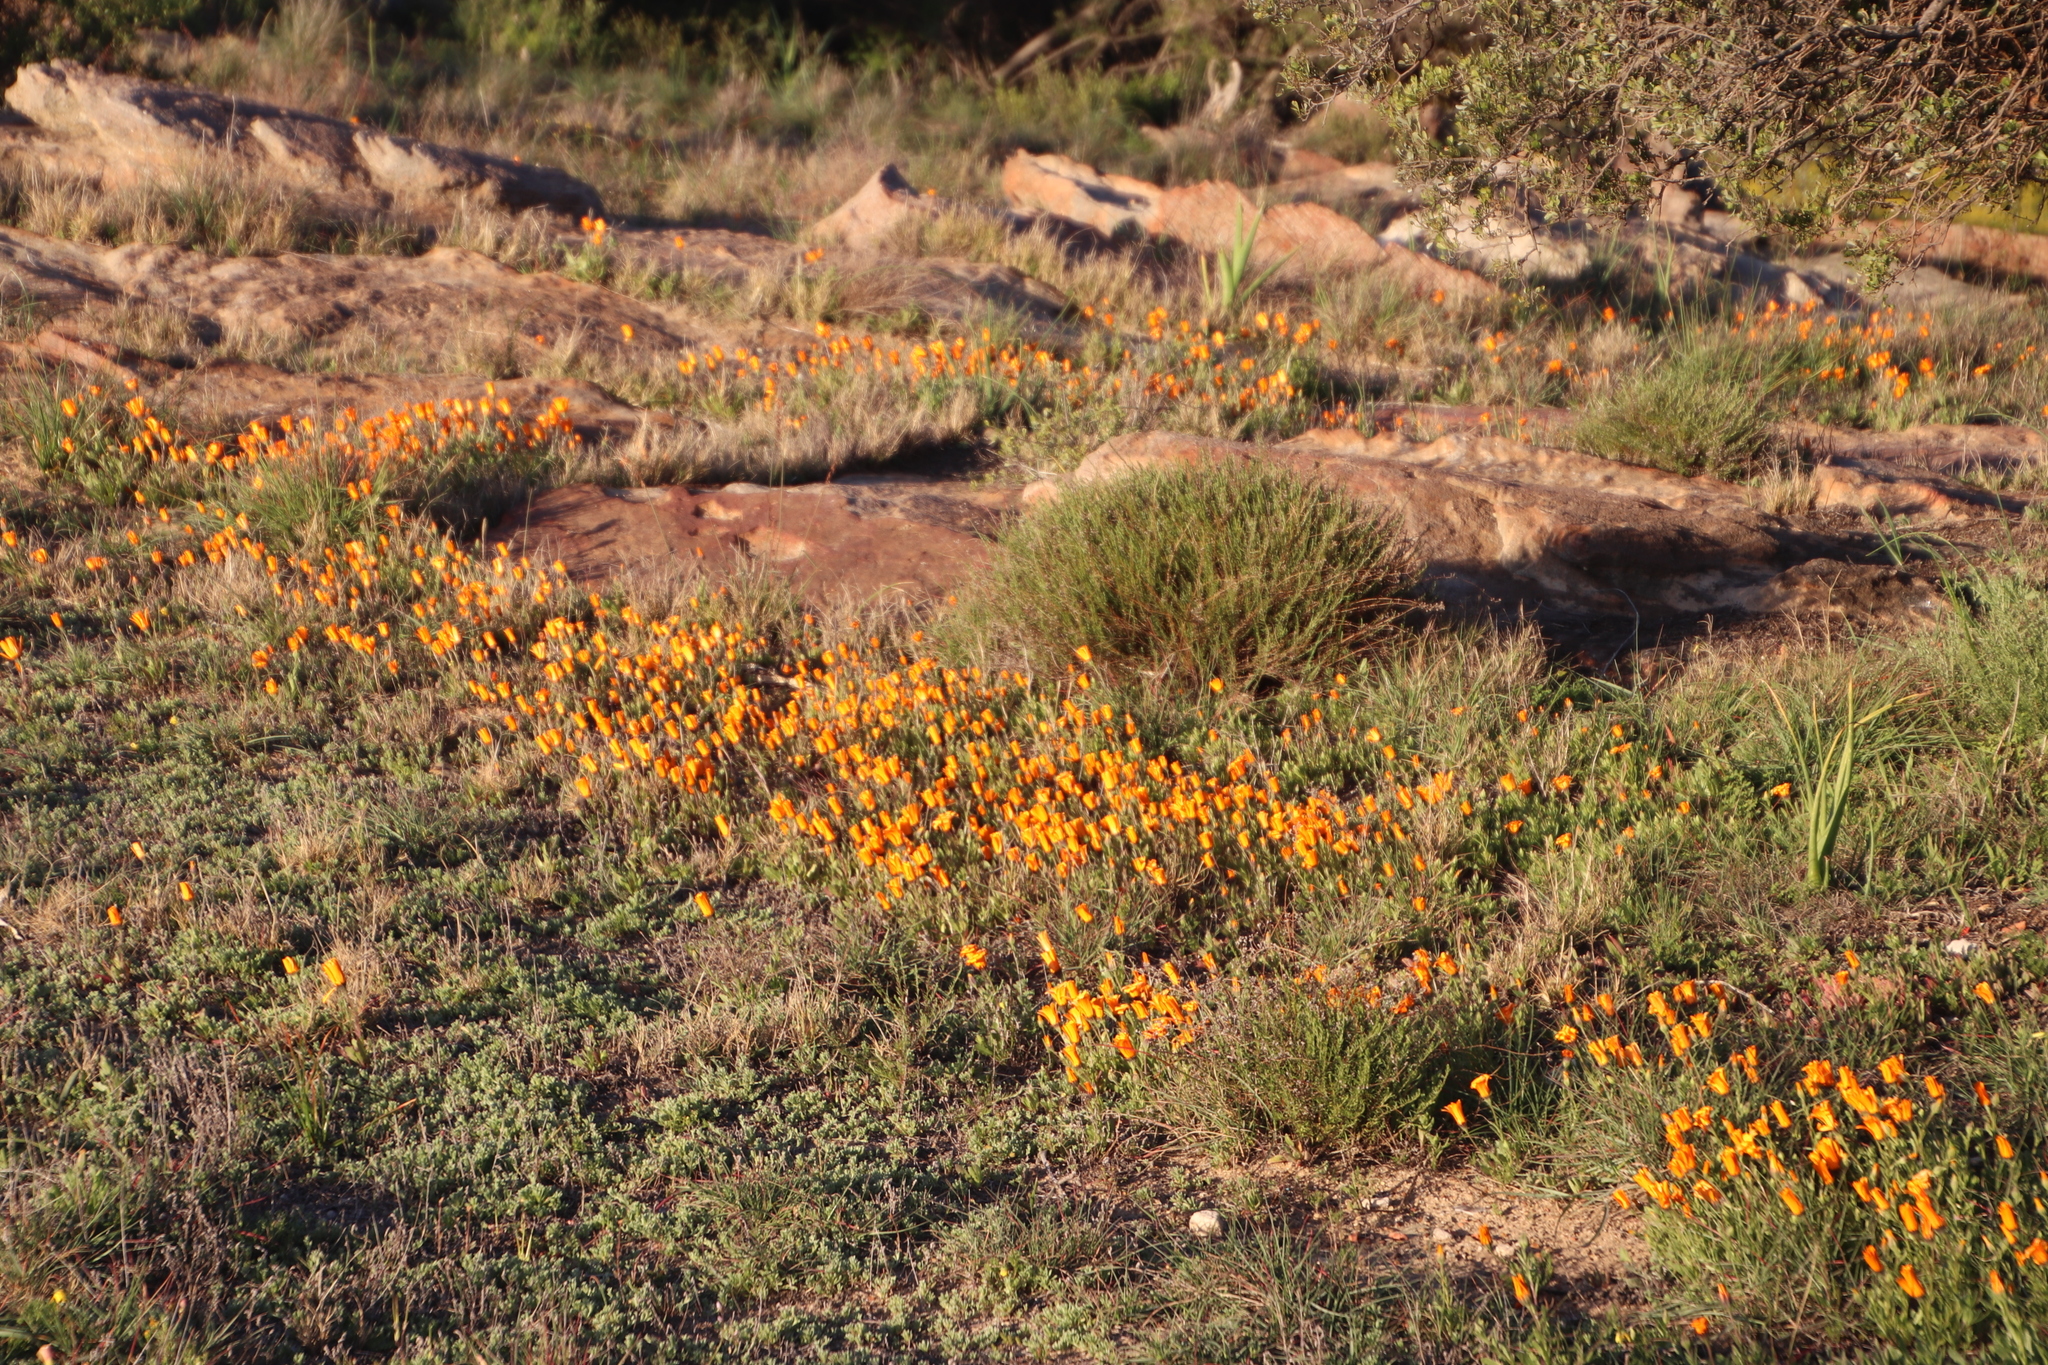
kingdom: Plantae
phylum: Tracheophyta
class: Magnoliopsida
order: Asterales
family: Asteraceae
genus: Dimorphotheca
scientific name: Dimorphotheca sinuata
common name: Glandular cape marigold
